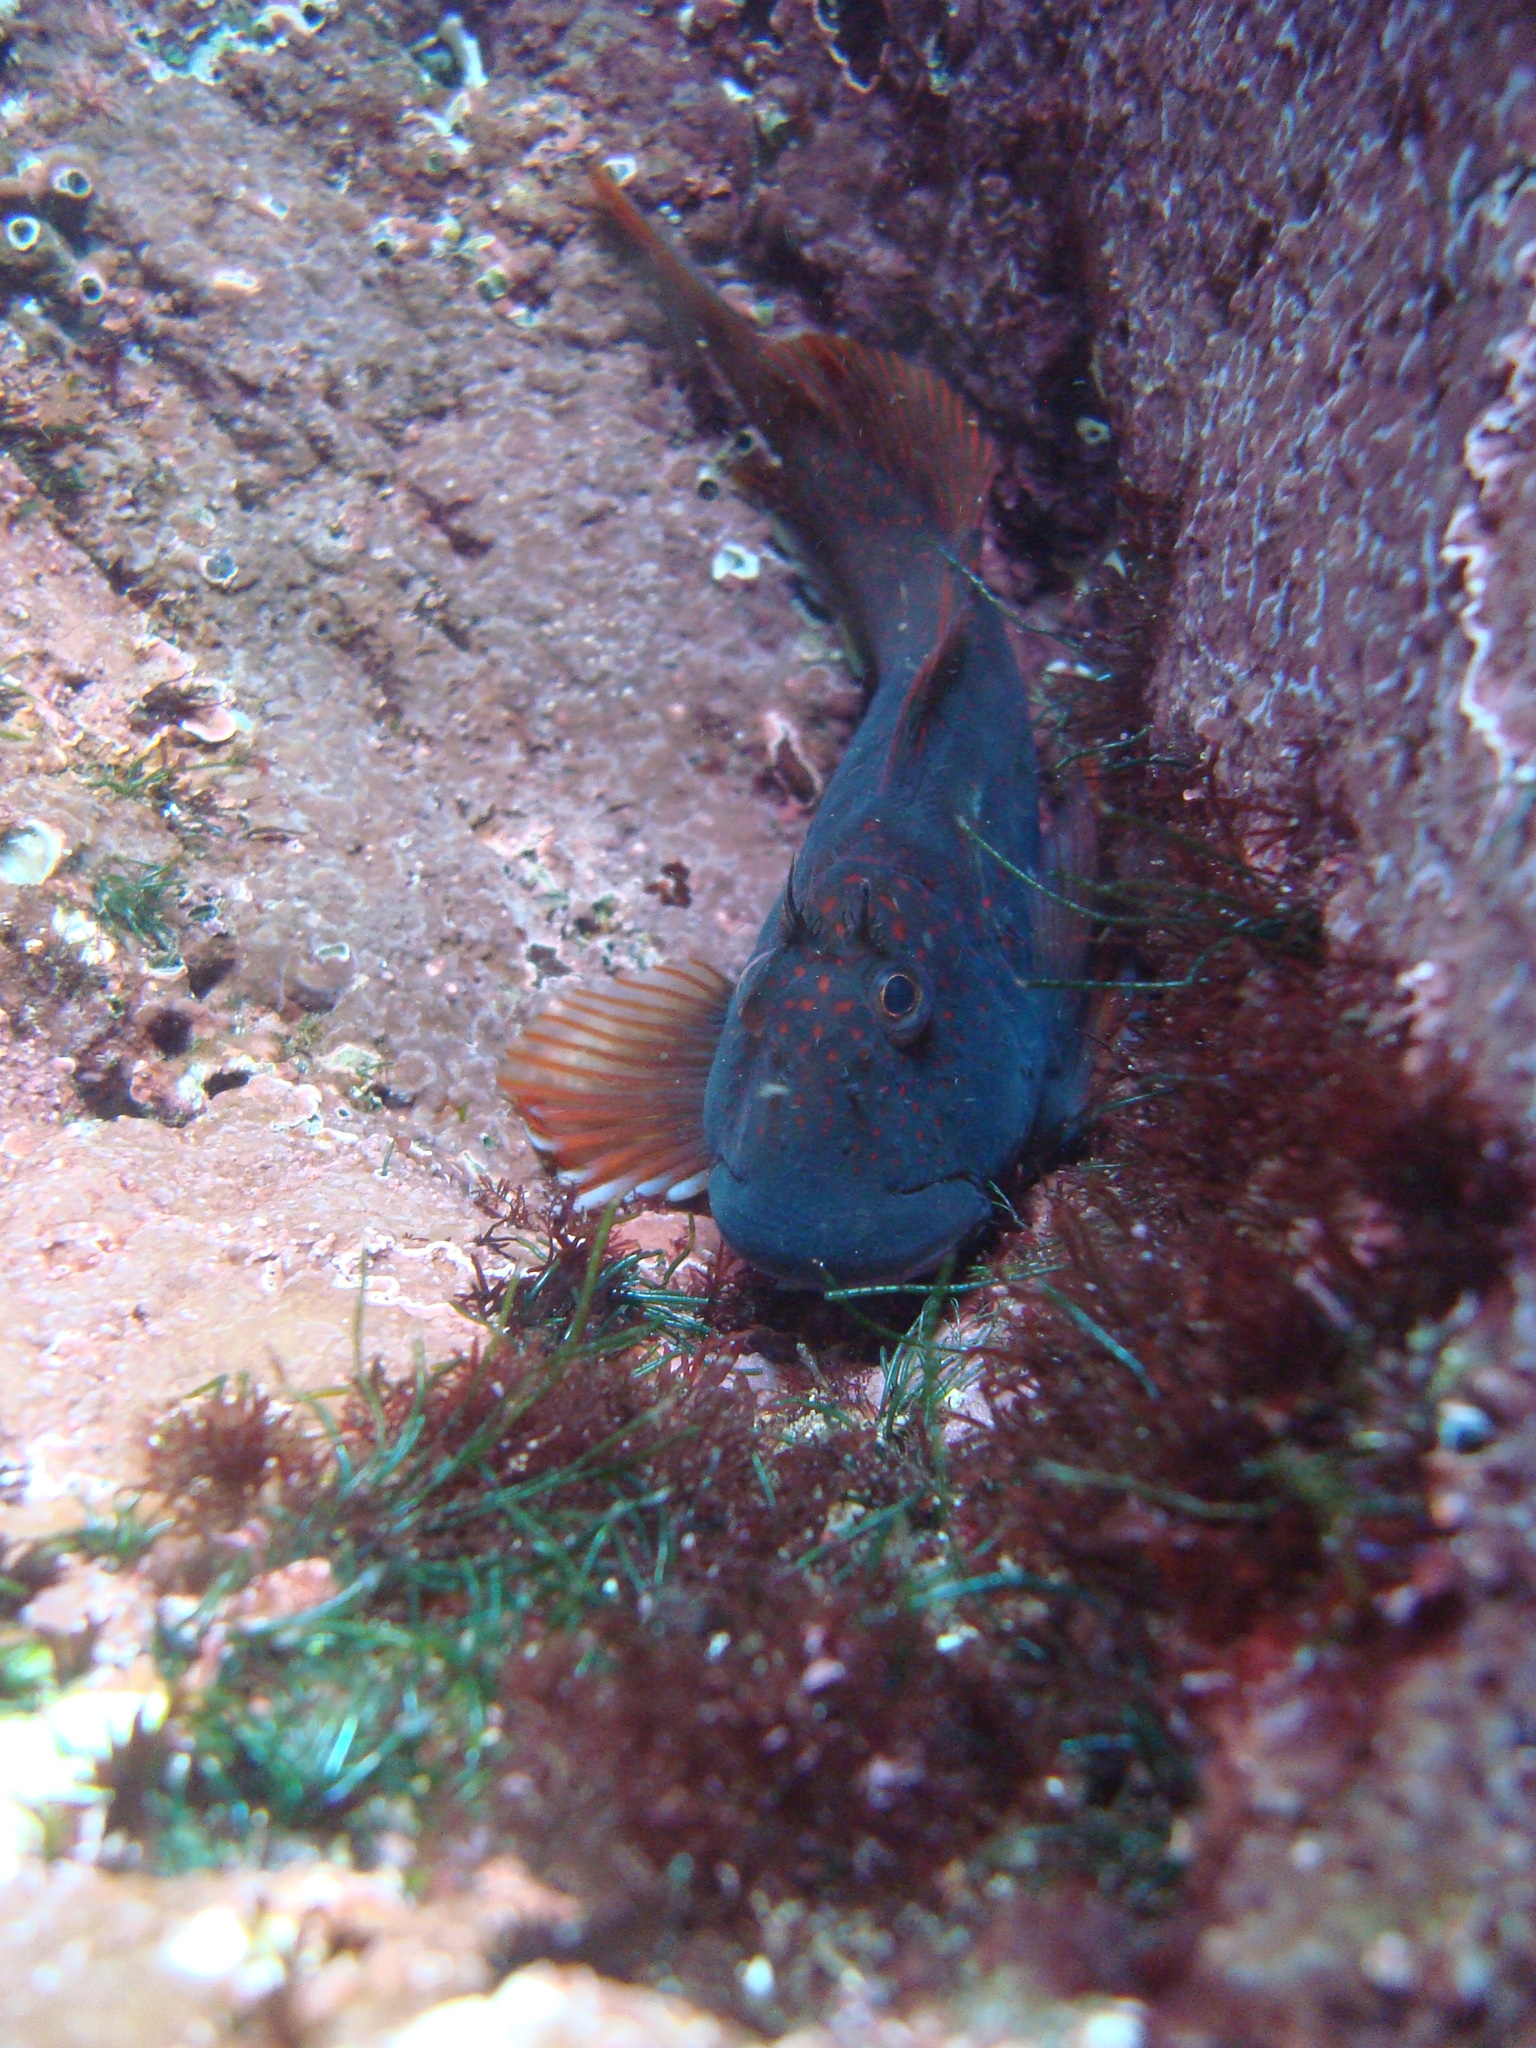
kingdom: Animalia
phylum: Chordata
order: Perciformes
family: Blenniidae
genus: Scartichthys
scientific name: Scartichthys variolatus
